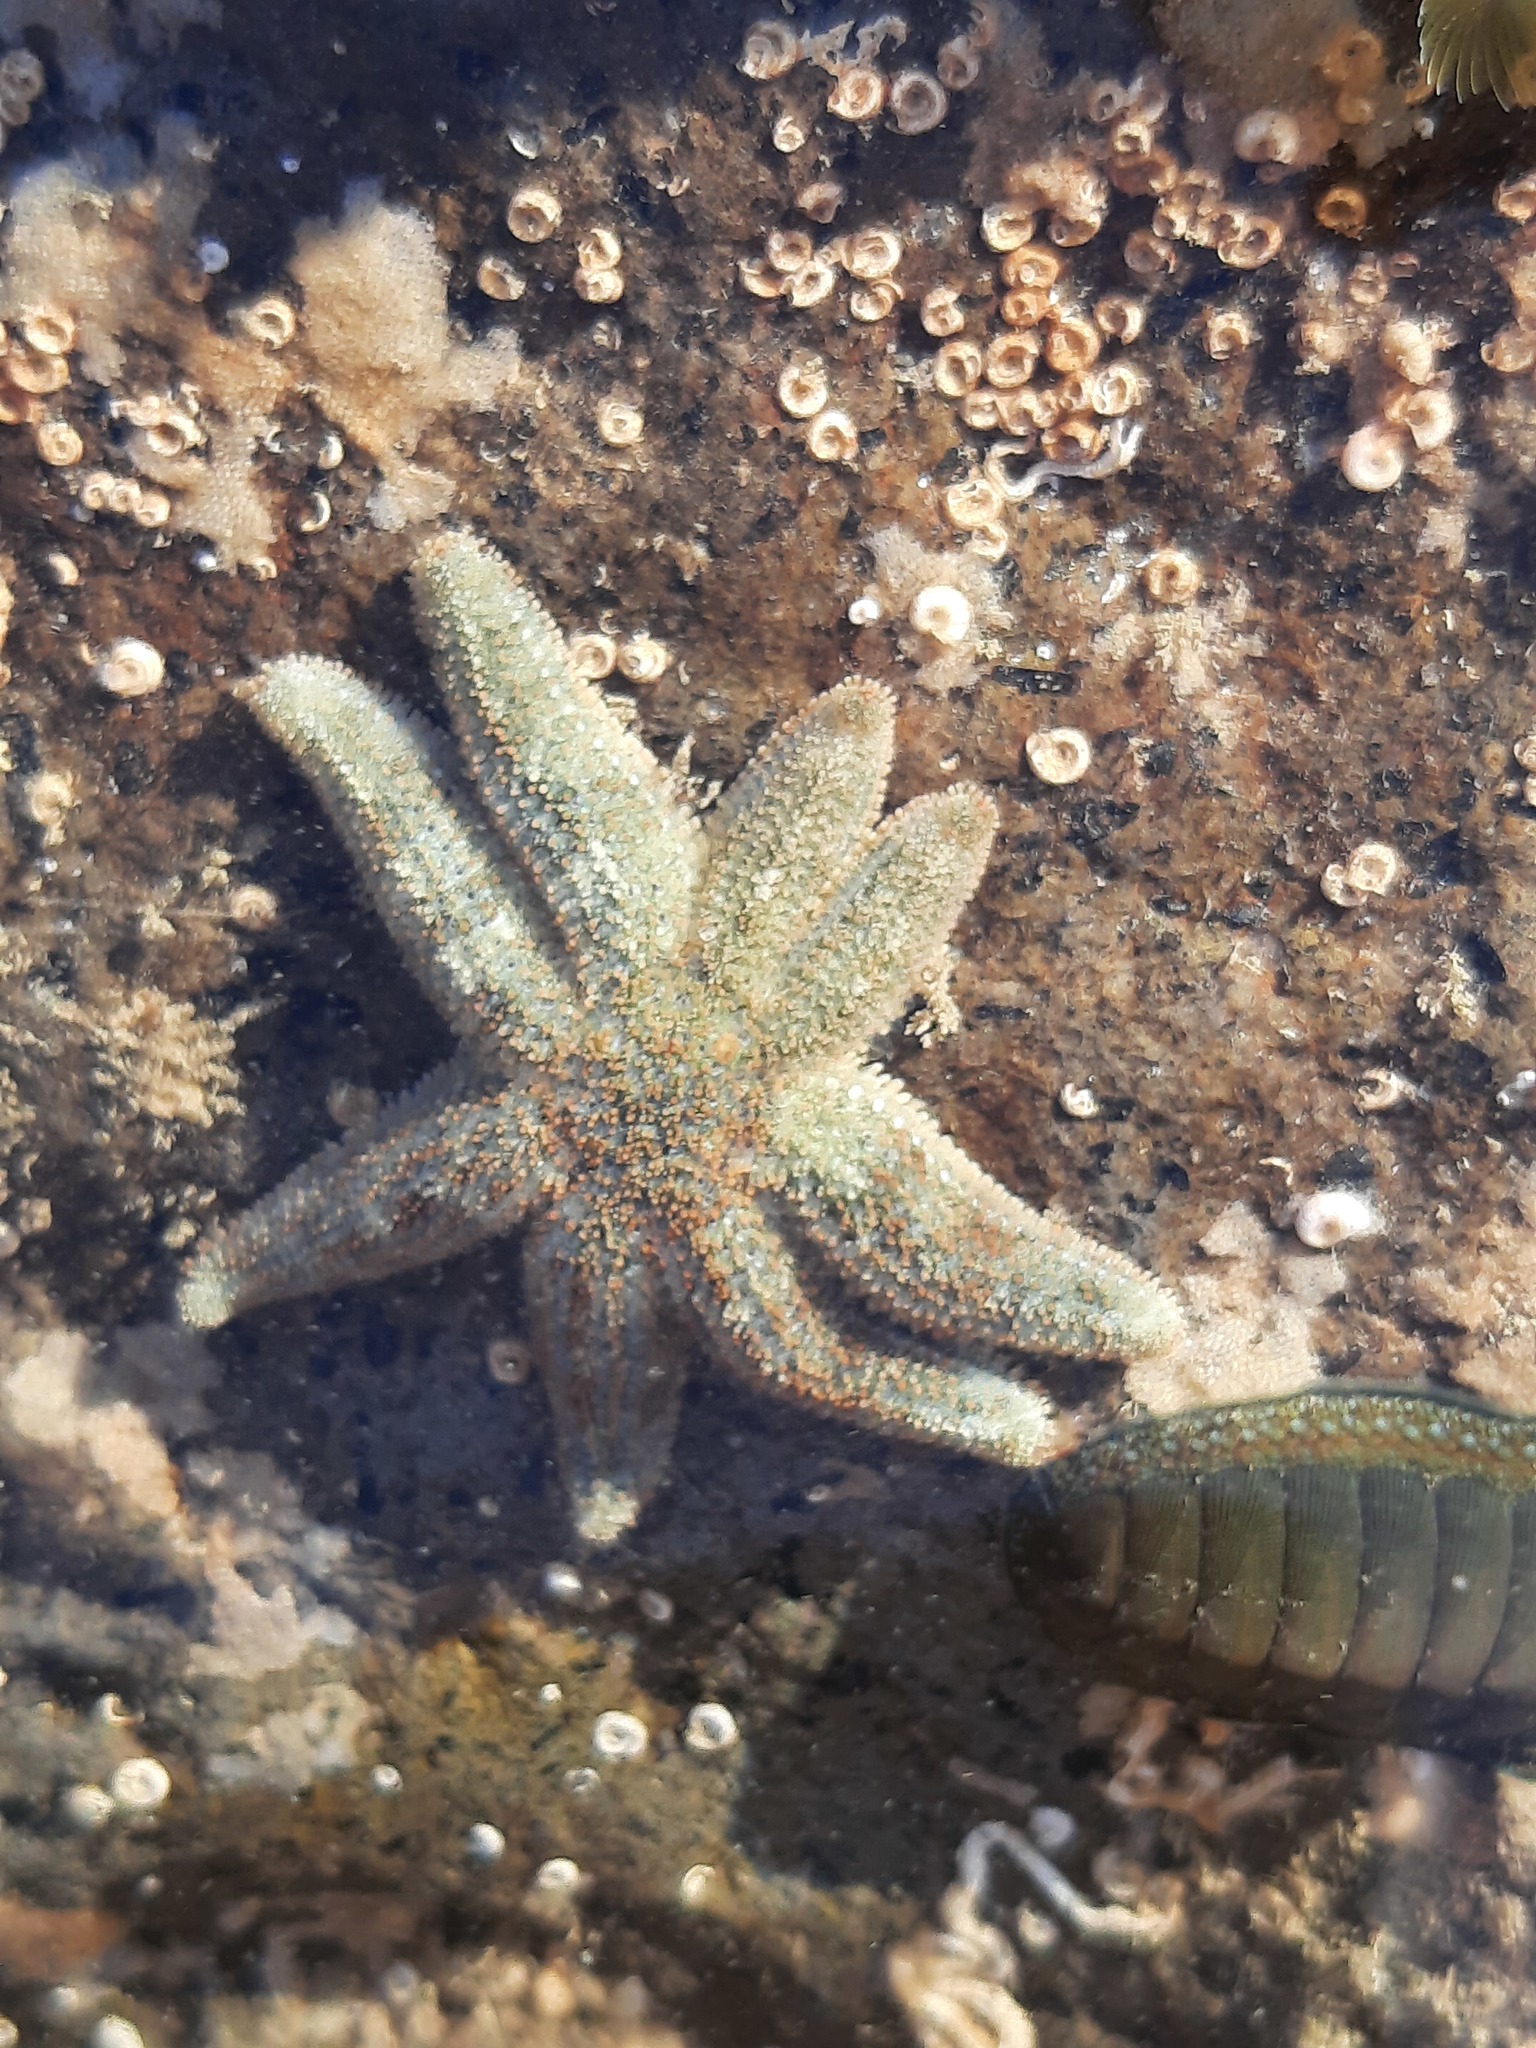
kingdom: Animalia
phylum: Echinodermata
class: Asteroidea
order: Forcipulatida
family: Stichasteridae
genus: Allostichaster
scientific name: Allostichaster polyplax
